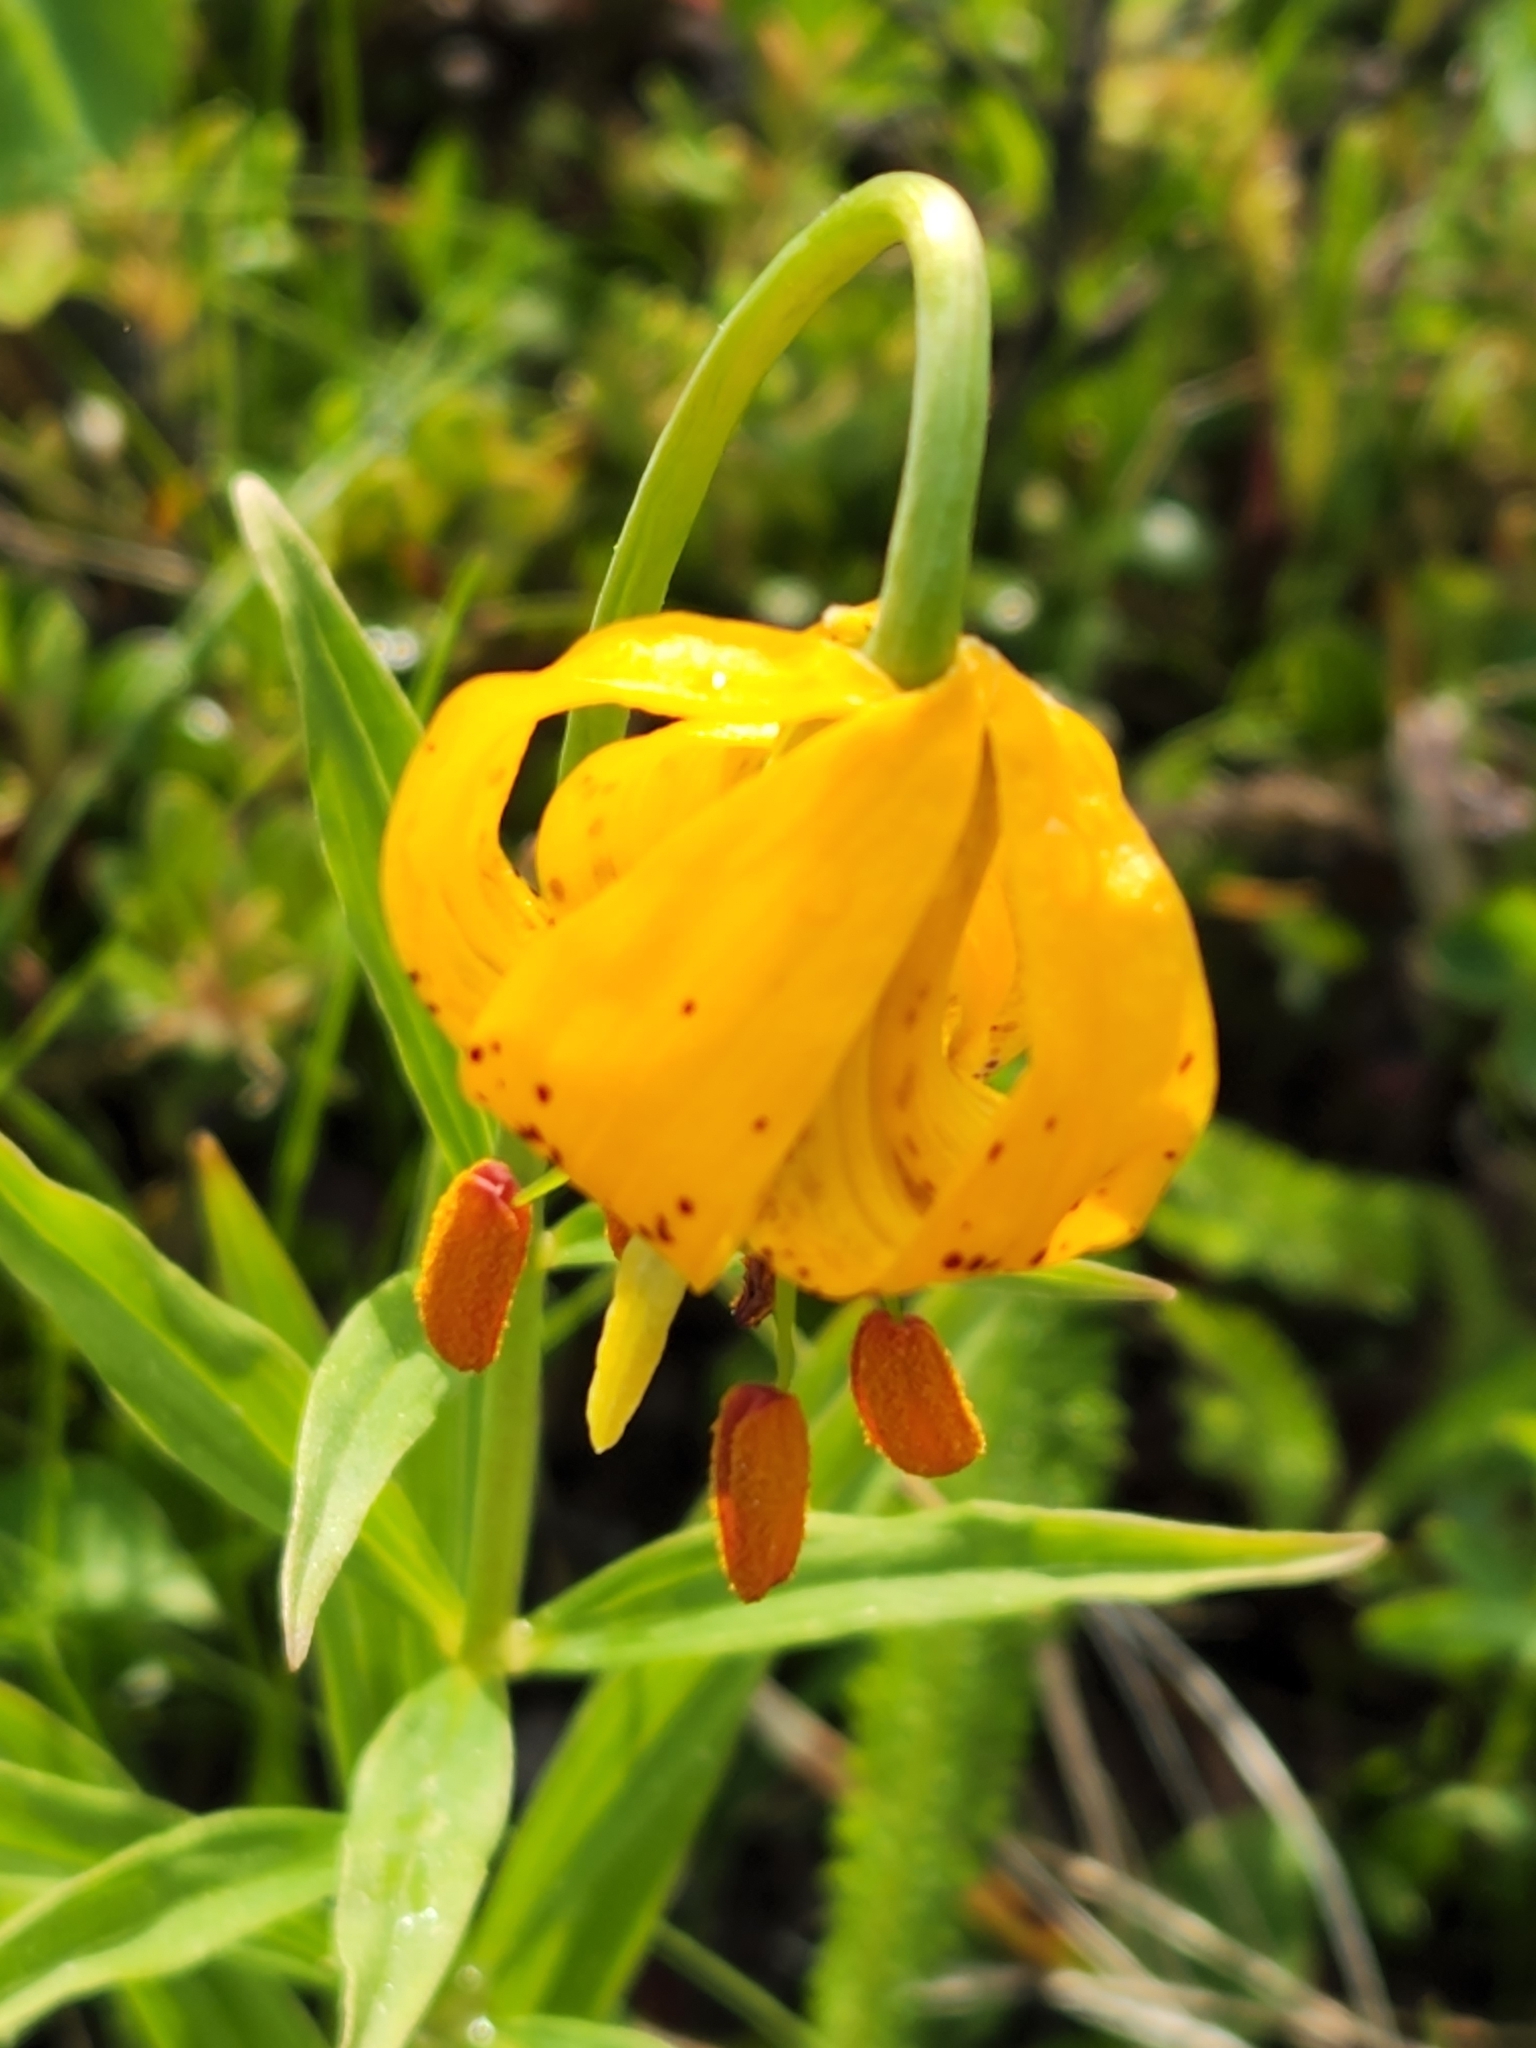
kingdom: Plantae
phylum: Tracheophyta
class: Liliopsida
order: Liliales
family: Liliaceae
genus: Lilium
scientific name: Lilium columbianum
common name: Columbia lily
